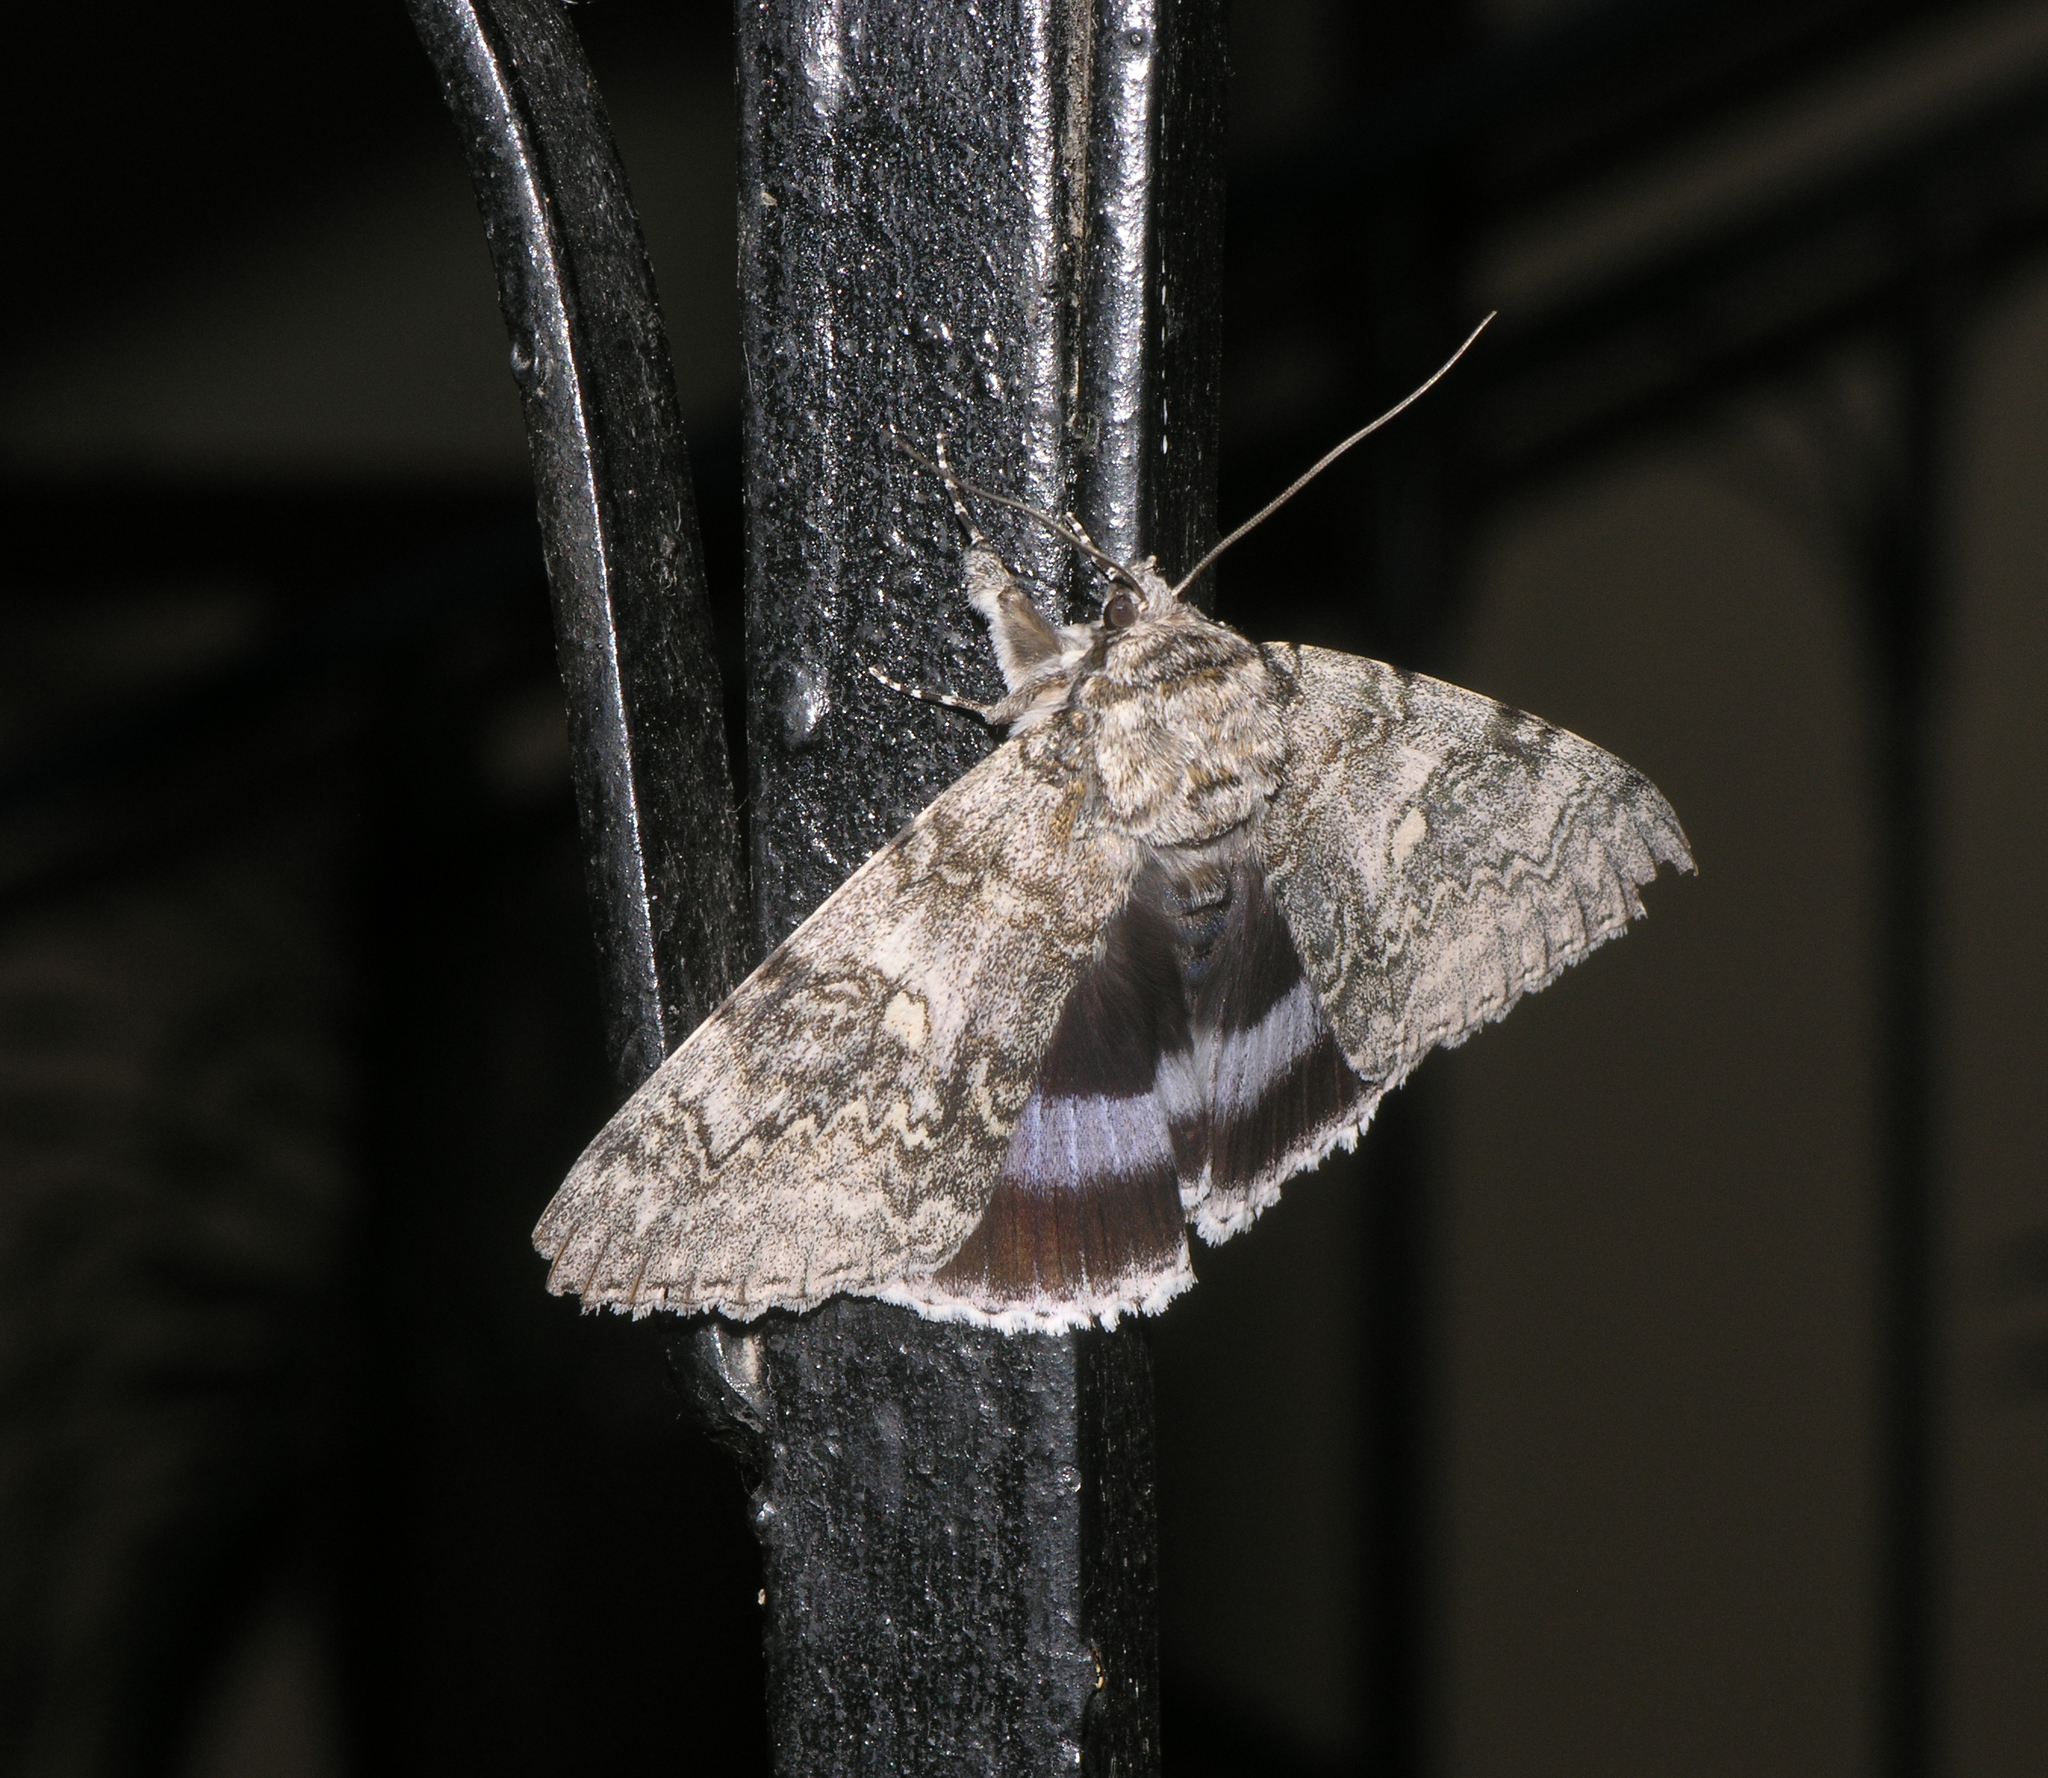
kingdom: Animalia
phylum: Arthropoda
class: Insecta
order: Lepidoptera
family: Erebidae
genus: Catocala
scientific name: Catocala fraxini
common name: Clifden nonpareil
